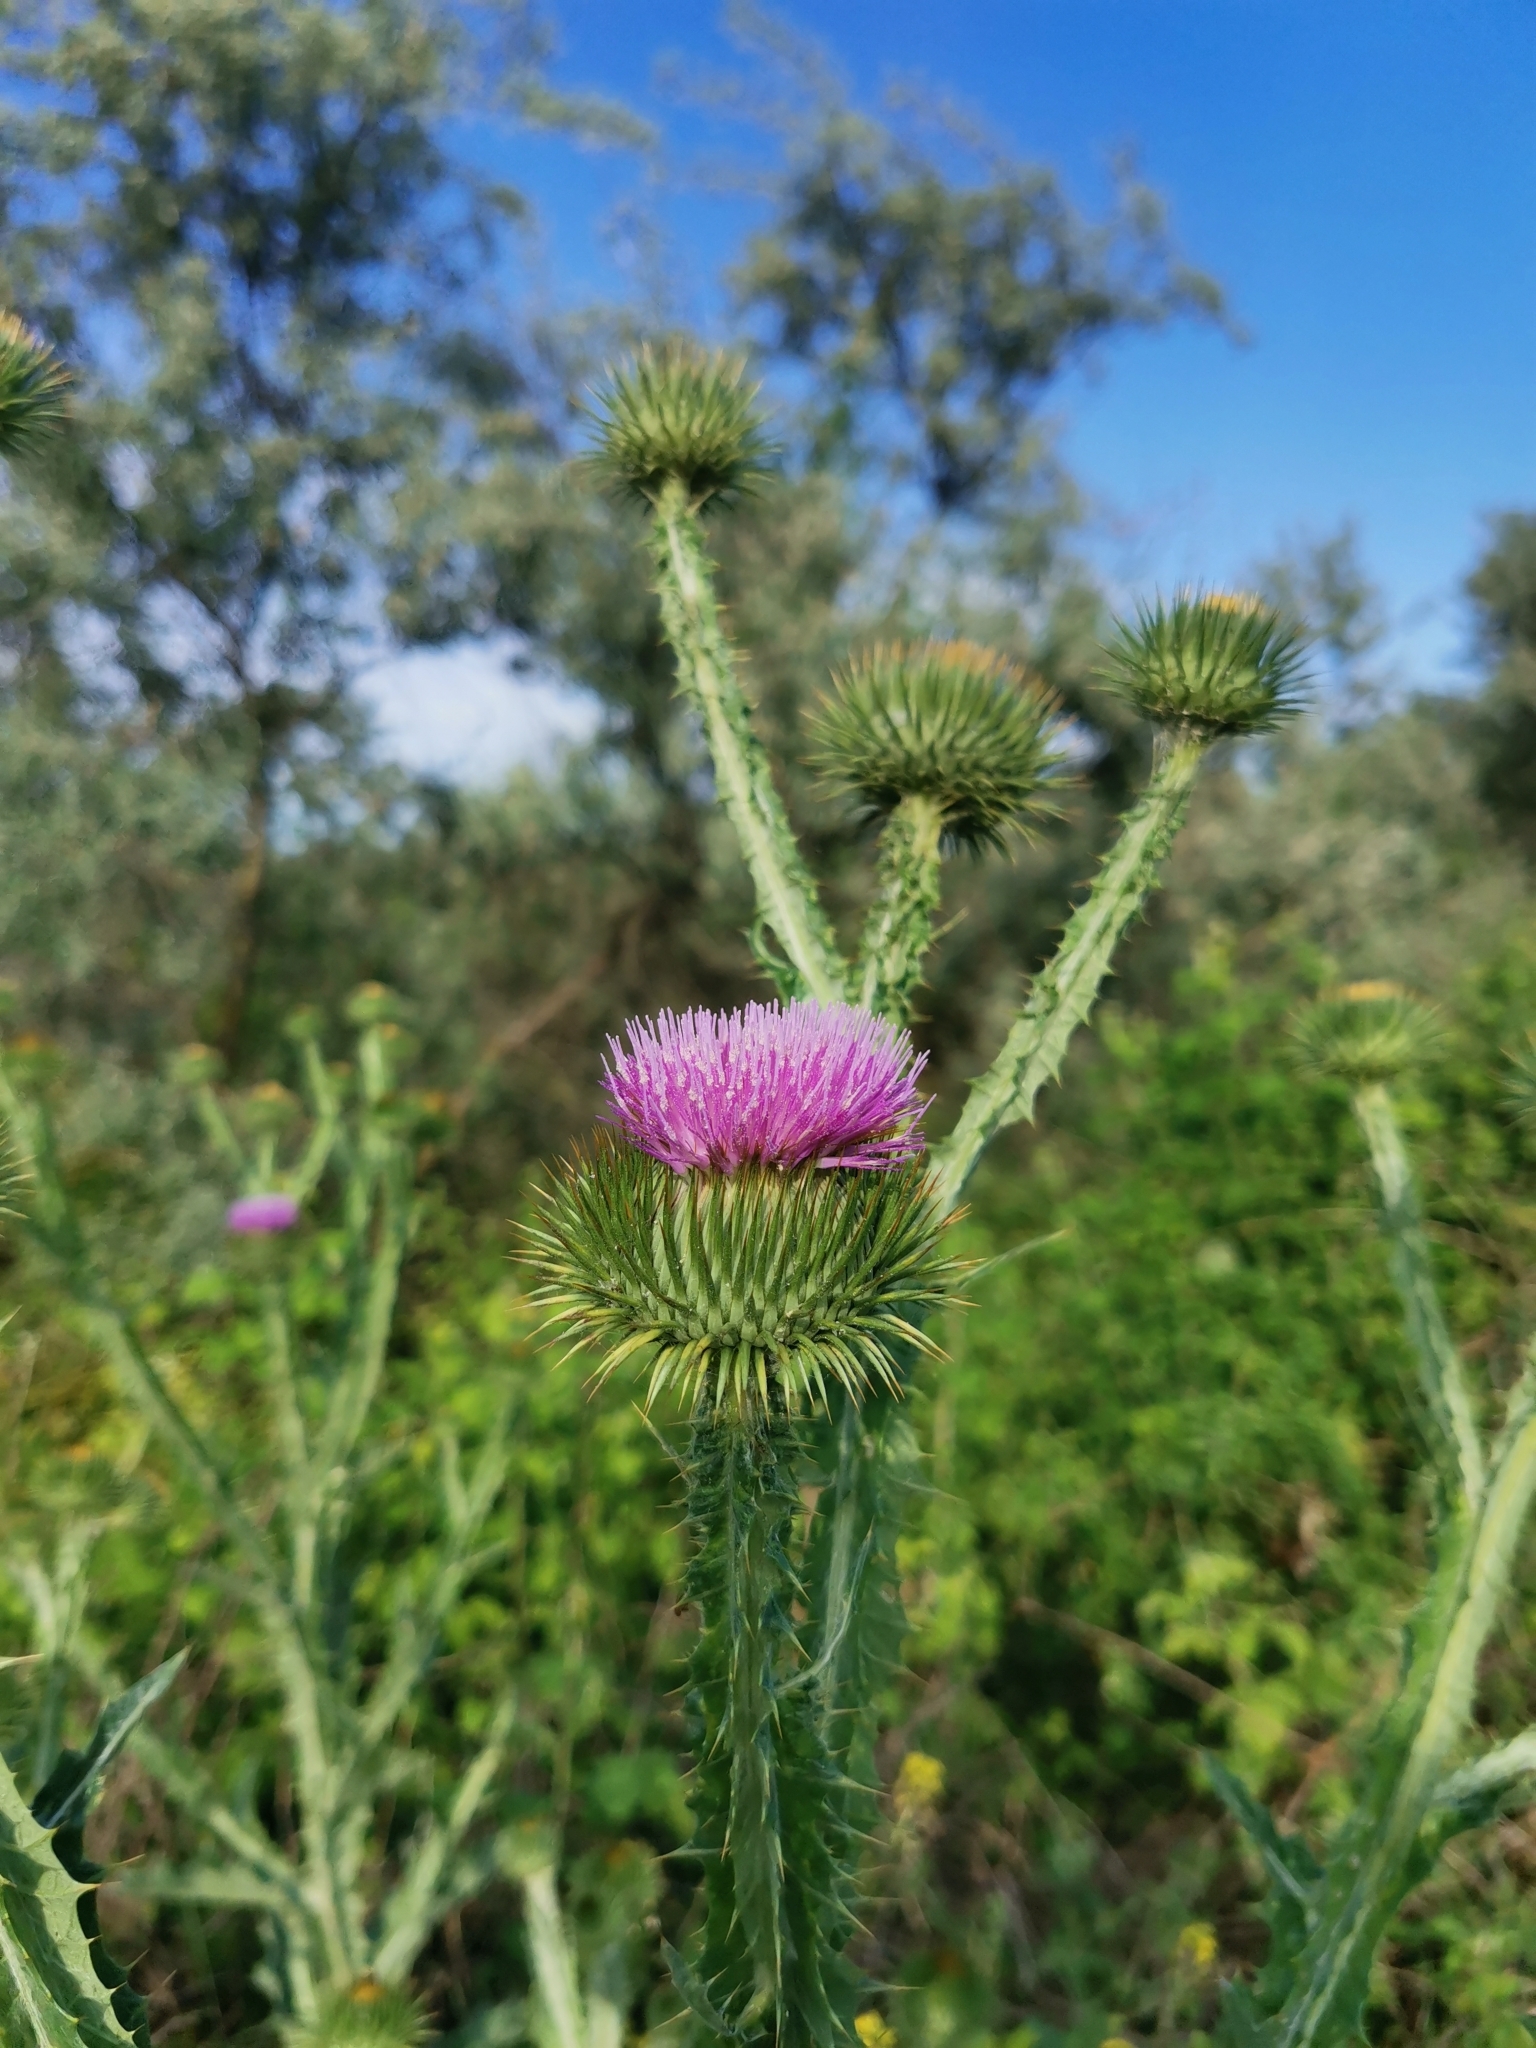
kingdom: Plantae
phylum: Tracheophyta
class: Magnoliopsida
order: Asterales
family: Asteraceae
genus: Onopordum
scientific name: Onopordum acanthium
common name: Scotch thistle
